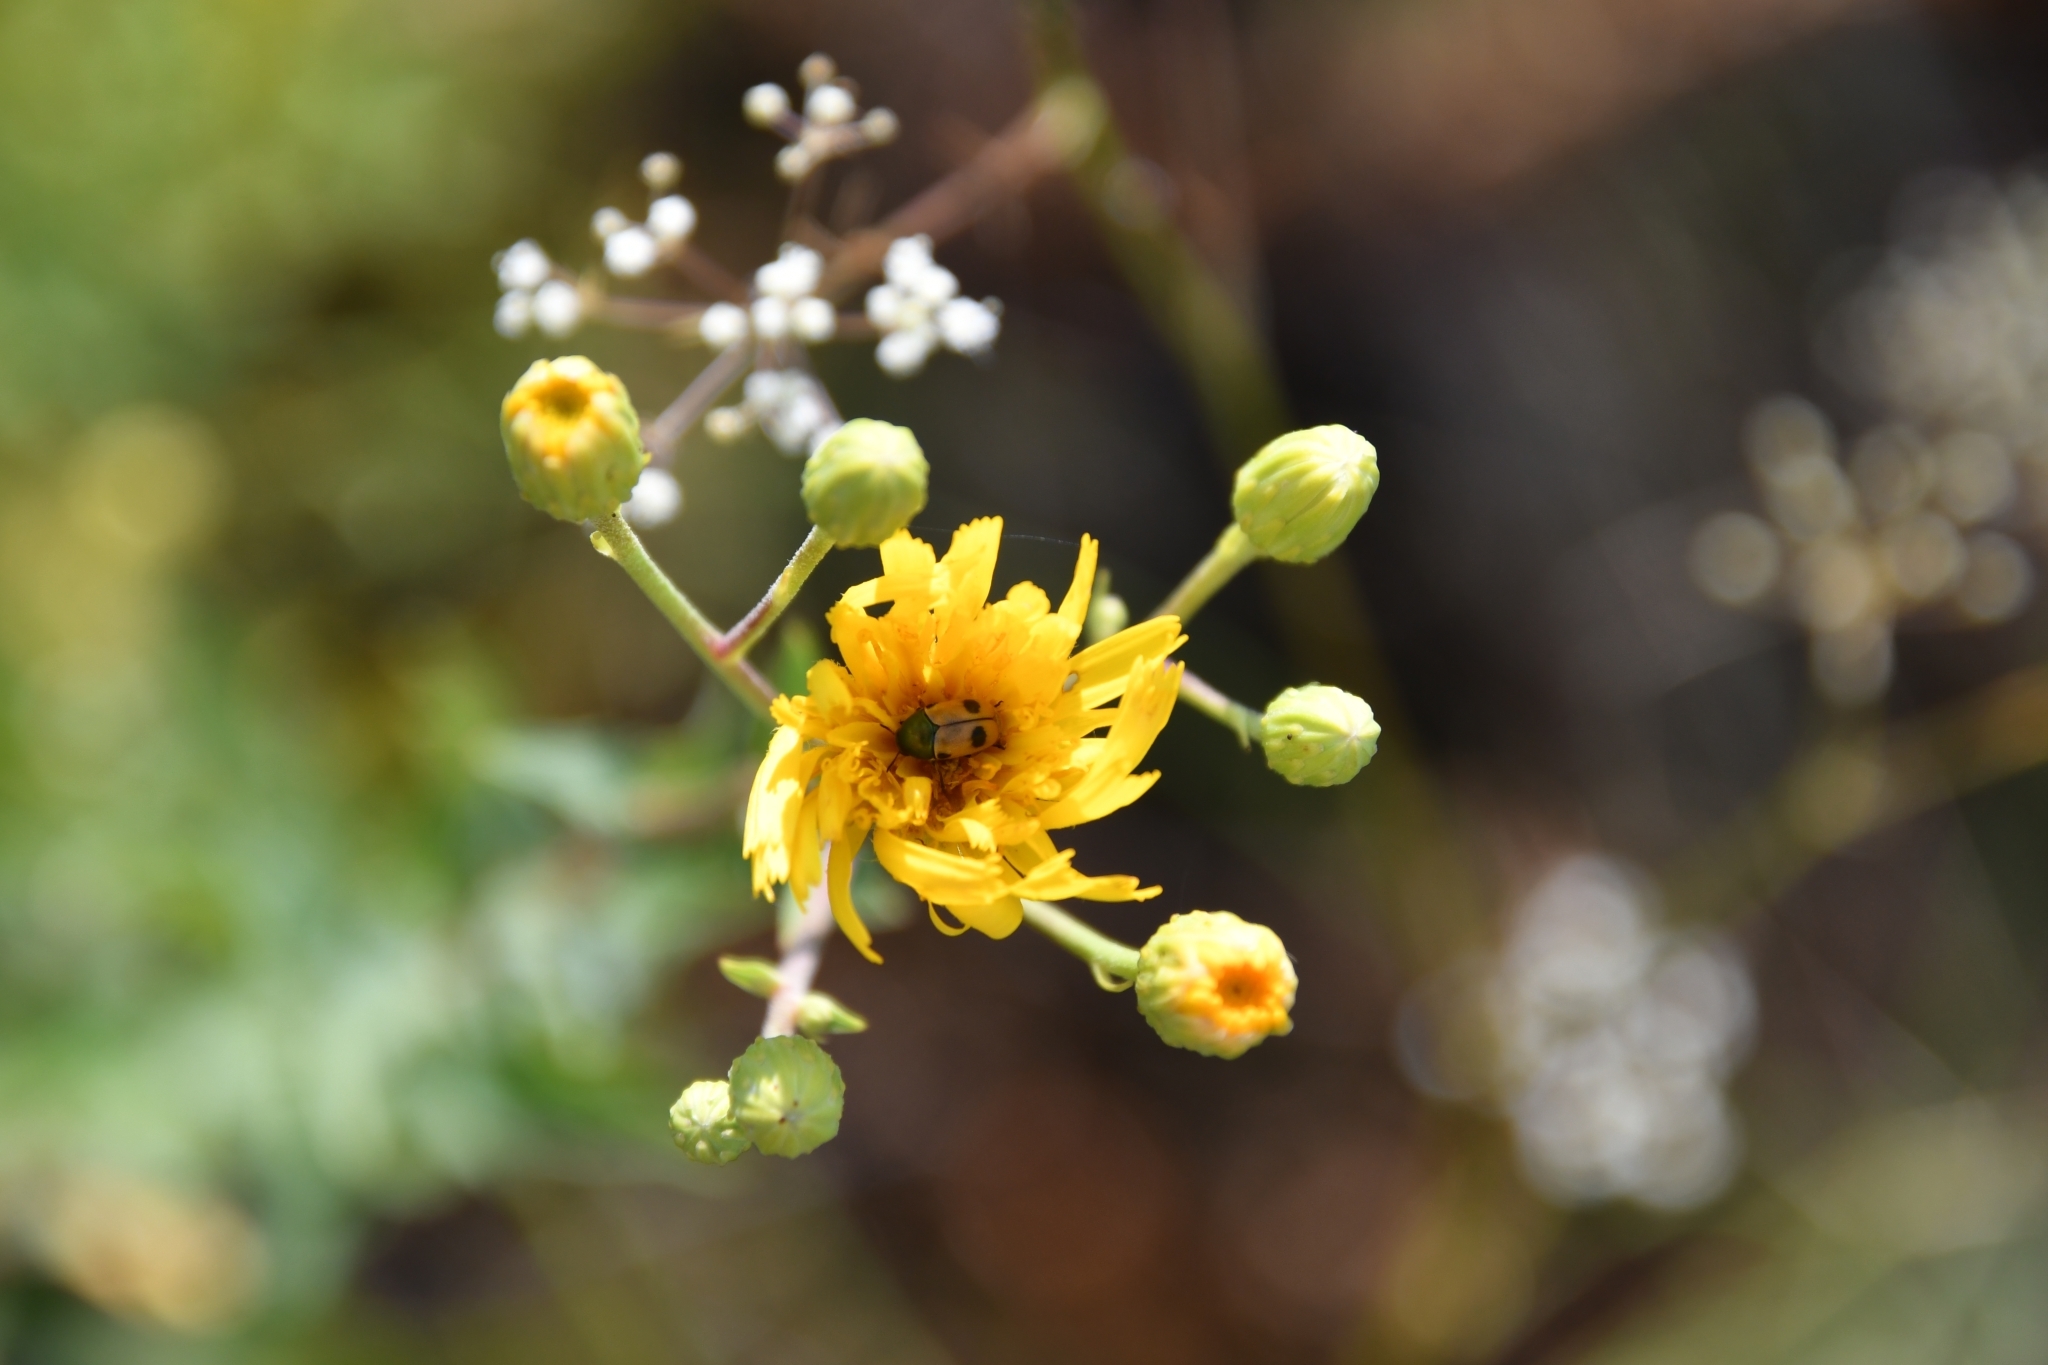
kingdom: Animalia
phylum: Arthropoda
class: Insecta
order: Coleoptera
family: Chrysomelidae
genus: Cryptocephalus
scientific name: Cryptocephalus laetus
